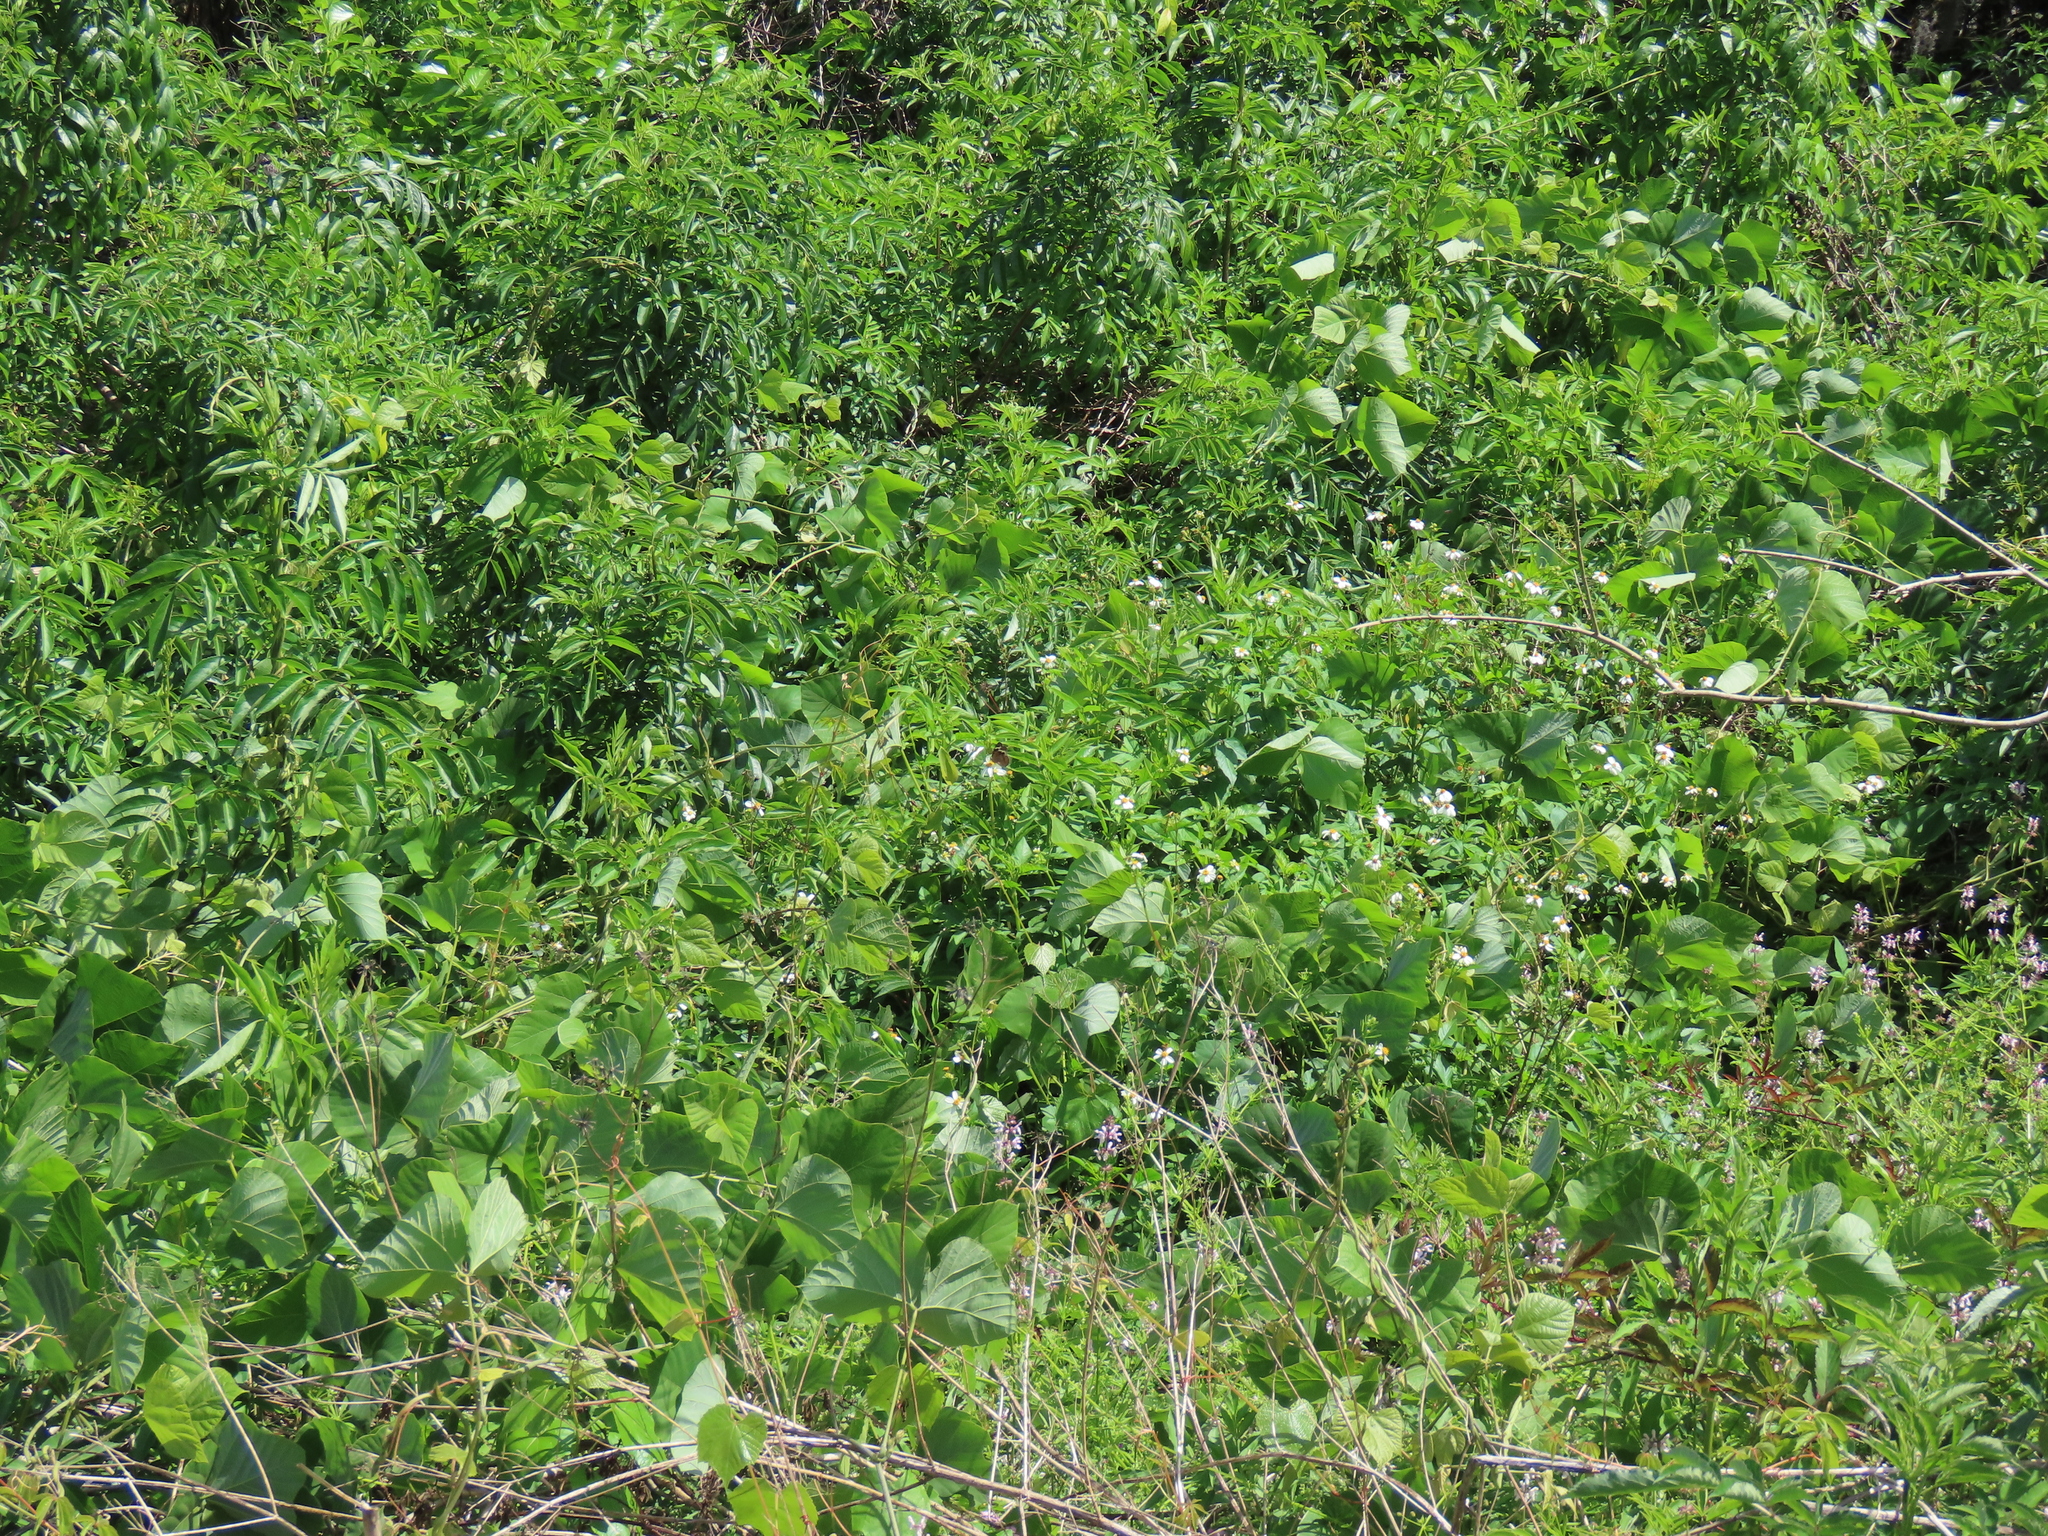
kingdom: Animalia
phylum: Arthropoda
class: Insecta
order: Lepidoptera
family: Nymphalidae
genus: Junonia
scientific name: Junonia coenia
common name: Common buckeye
